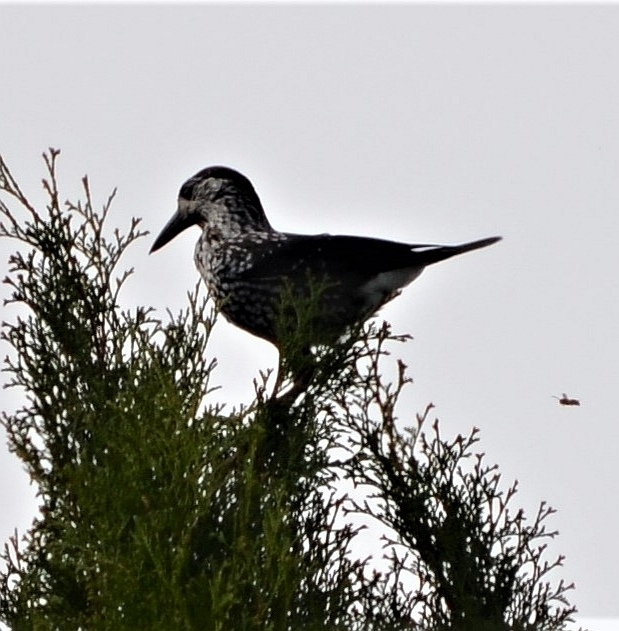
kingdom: Animalia
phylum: Chordata
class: Aves
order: Passeriformes
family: Corvidae
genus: Nucifraga
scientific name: Nucifraga caryocatactes
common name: Spotted nutcracker
